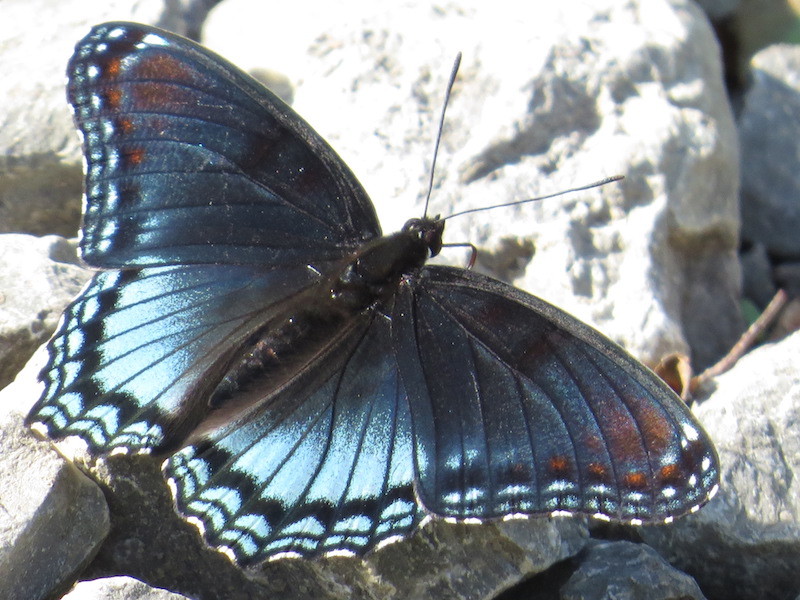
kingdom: Animalia
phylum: Arthropoda
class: Insecta
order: Lepidoptera
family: Nymphalidae
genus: Limenitis
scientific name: Limenitis astyanax
